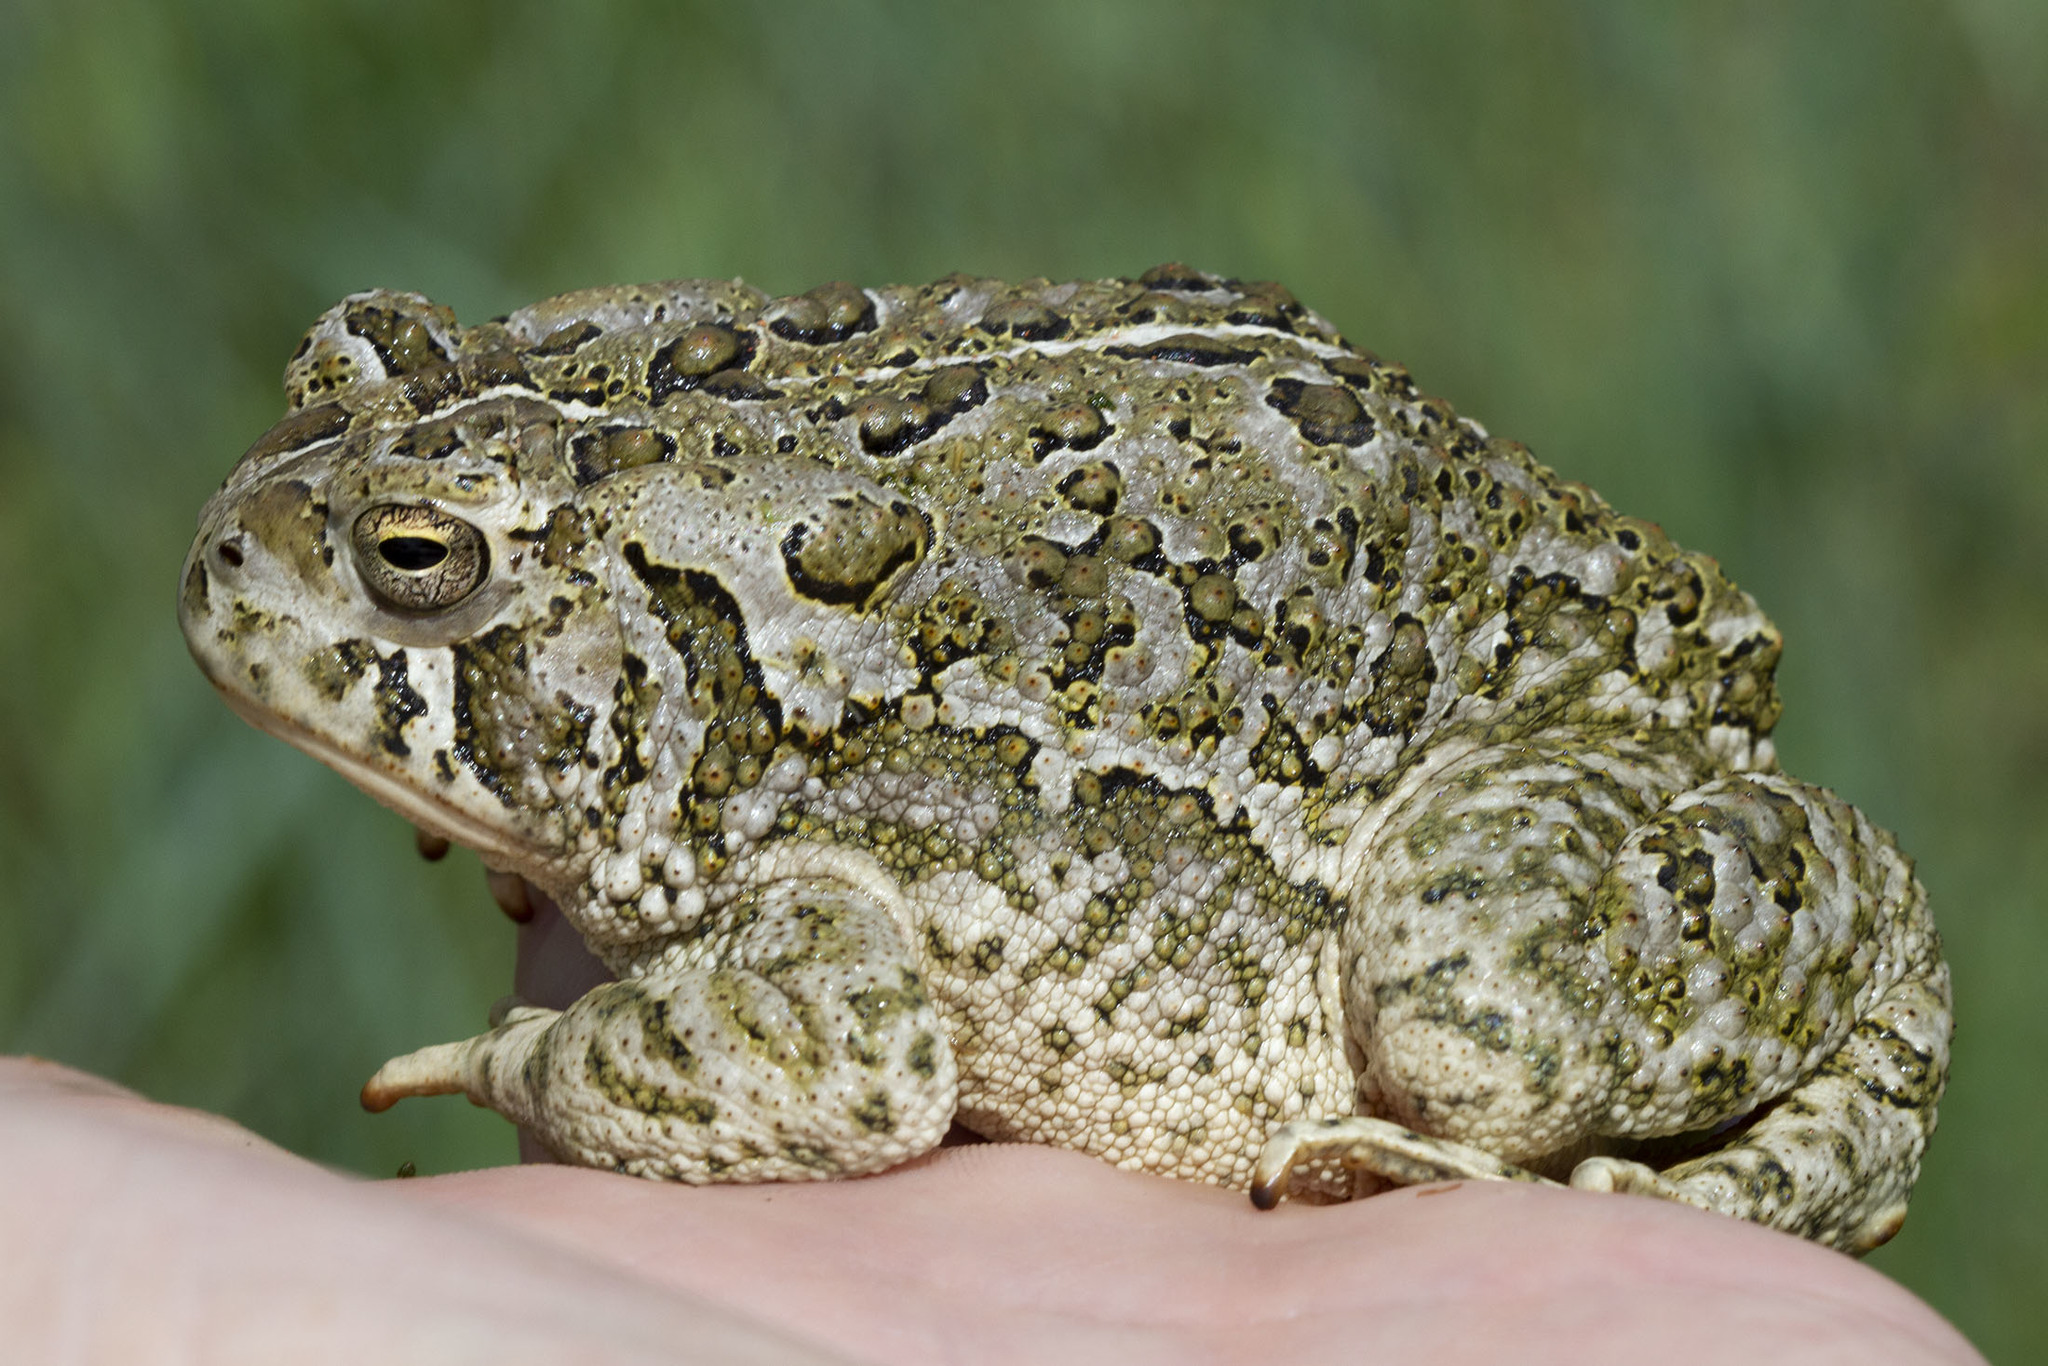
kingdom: Animalia
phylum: Chordata
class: Amphibia
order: Anura
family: Bufonidae
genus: Anaxyrus
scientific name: Anaxyrus woodhousii
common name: Woodhouse's toad
